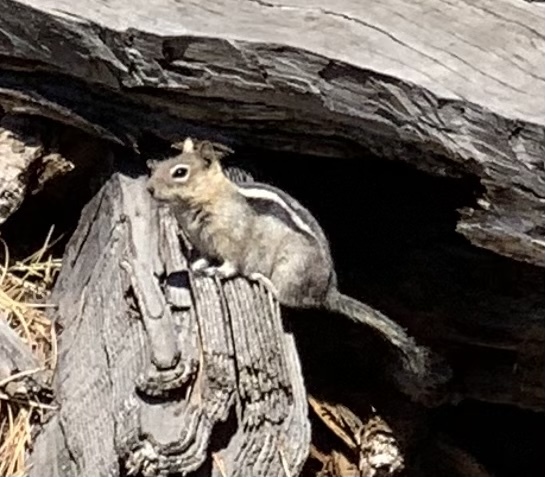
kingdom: Animalia
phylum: Chordata
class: Mammalia
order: Rodentia
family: Sciuridae
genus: Callospermophilus
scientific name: Callospermophilus lateralis
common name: Golden-mantled ground squirrel
